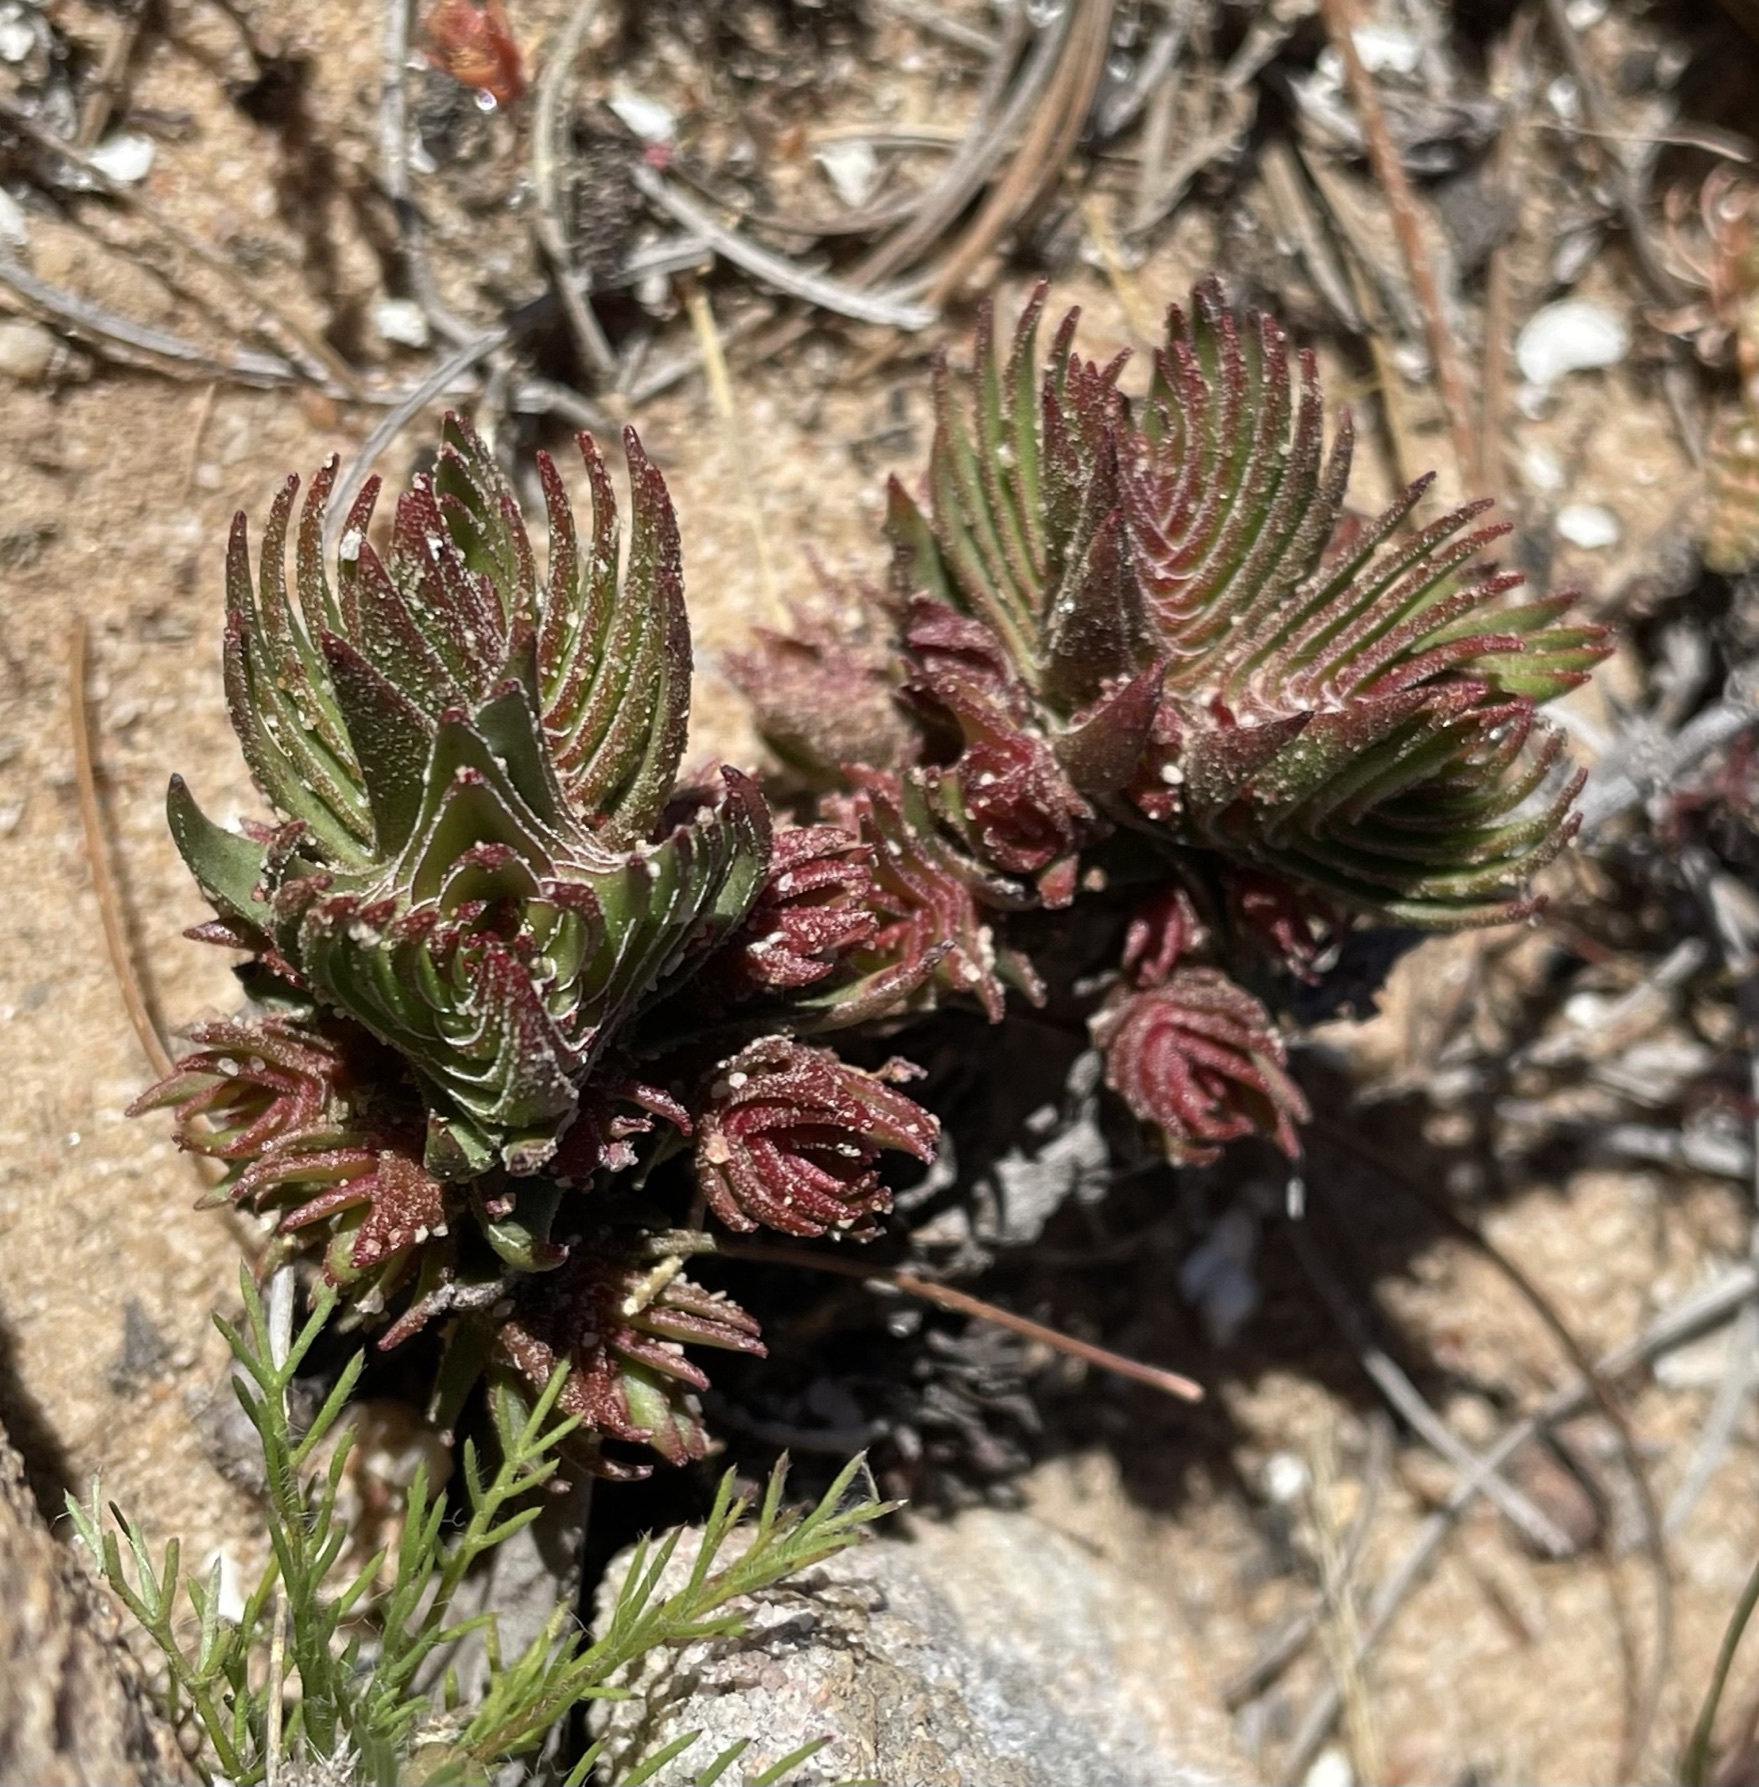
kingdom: Plantae
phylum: Tracheophyta
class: Magnoliopsida
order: Saxifragales
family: Crassulaceae
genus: Crassula
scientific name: Crassula alpestris
